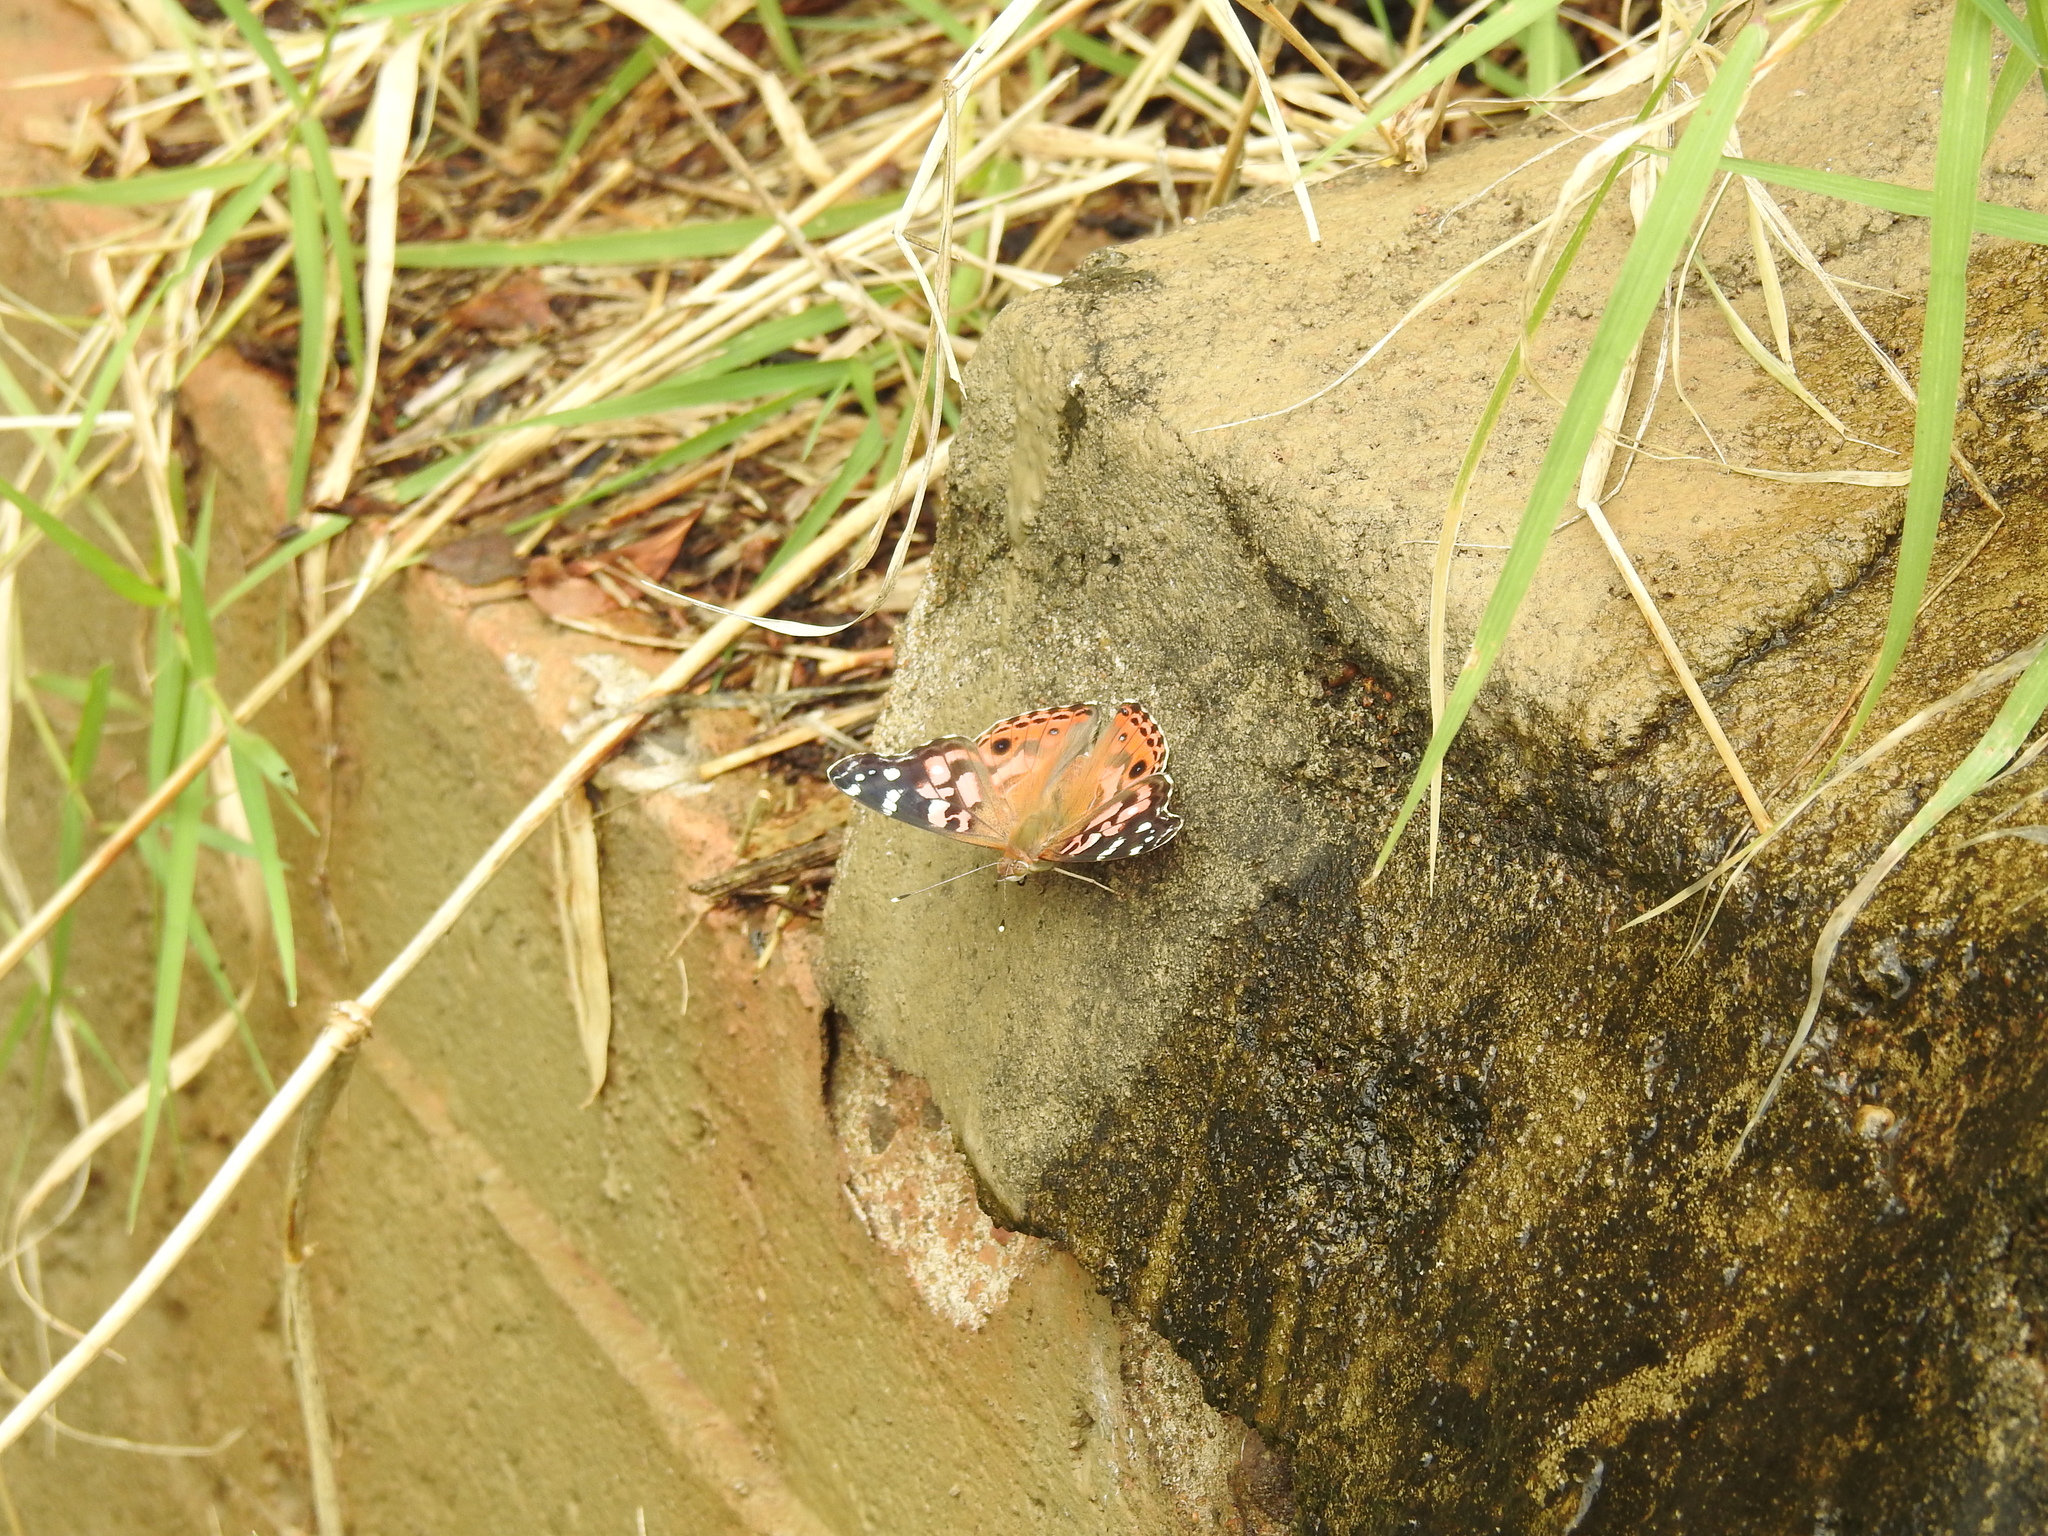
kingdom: Animalia
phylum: Arthropoda
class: Insecta
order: Lepidoptera
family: Nymphalidae
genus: Vanessa
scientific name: Vanessa braziliensis
